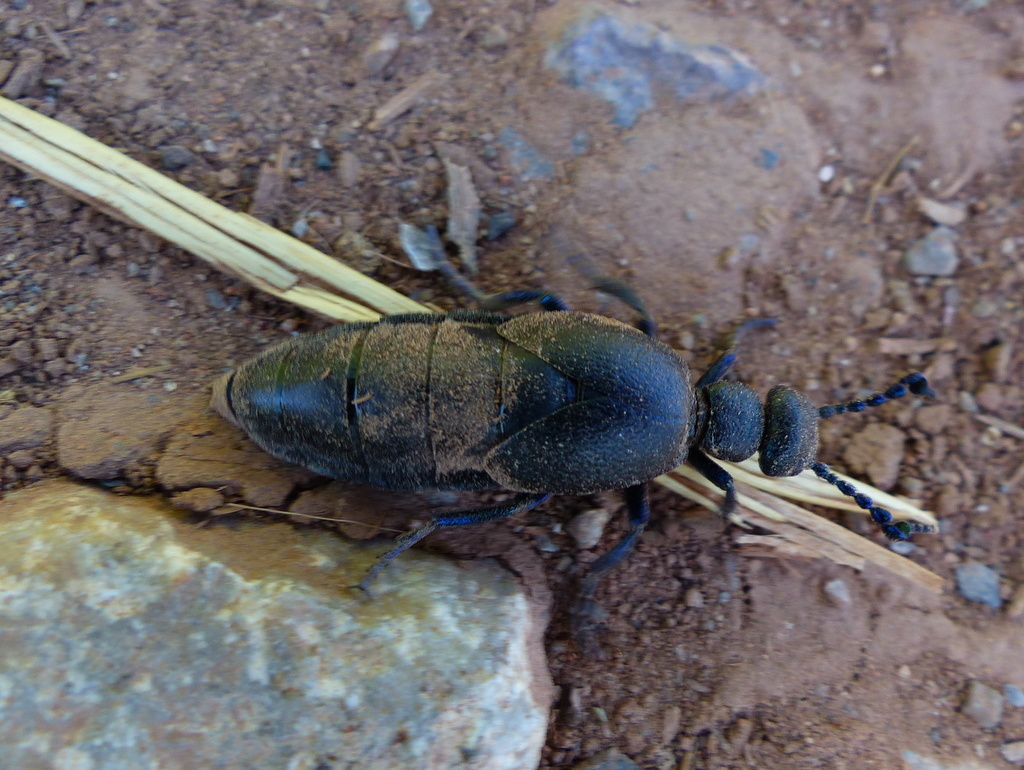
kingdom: Animalia
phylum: Arthropoda
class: Insecta
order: Coleoptera
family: Meloidae
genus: Meloe
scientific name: Meloe proscarabaeus
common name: Black oil-beetle
